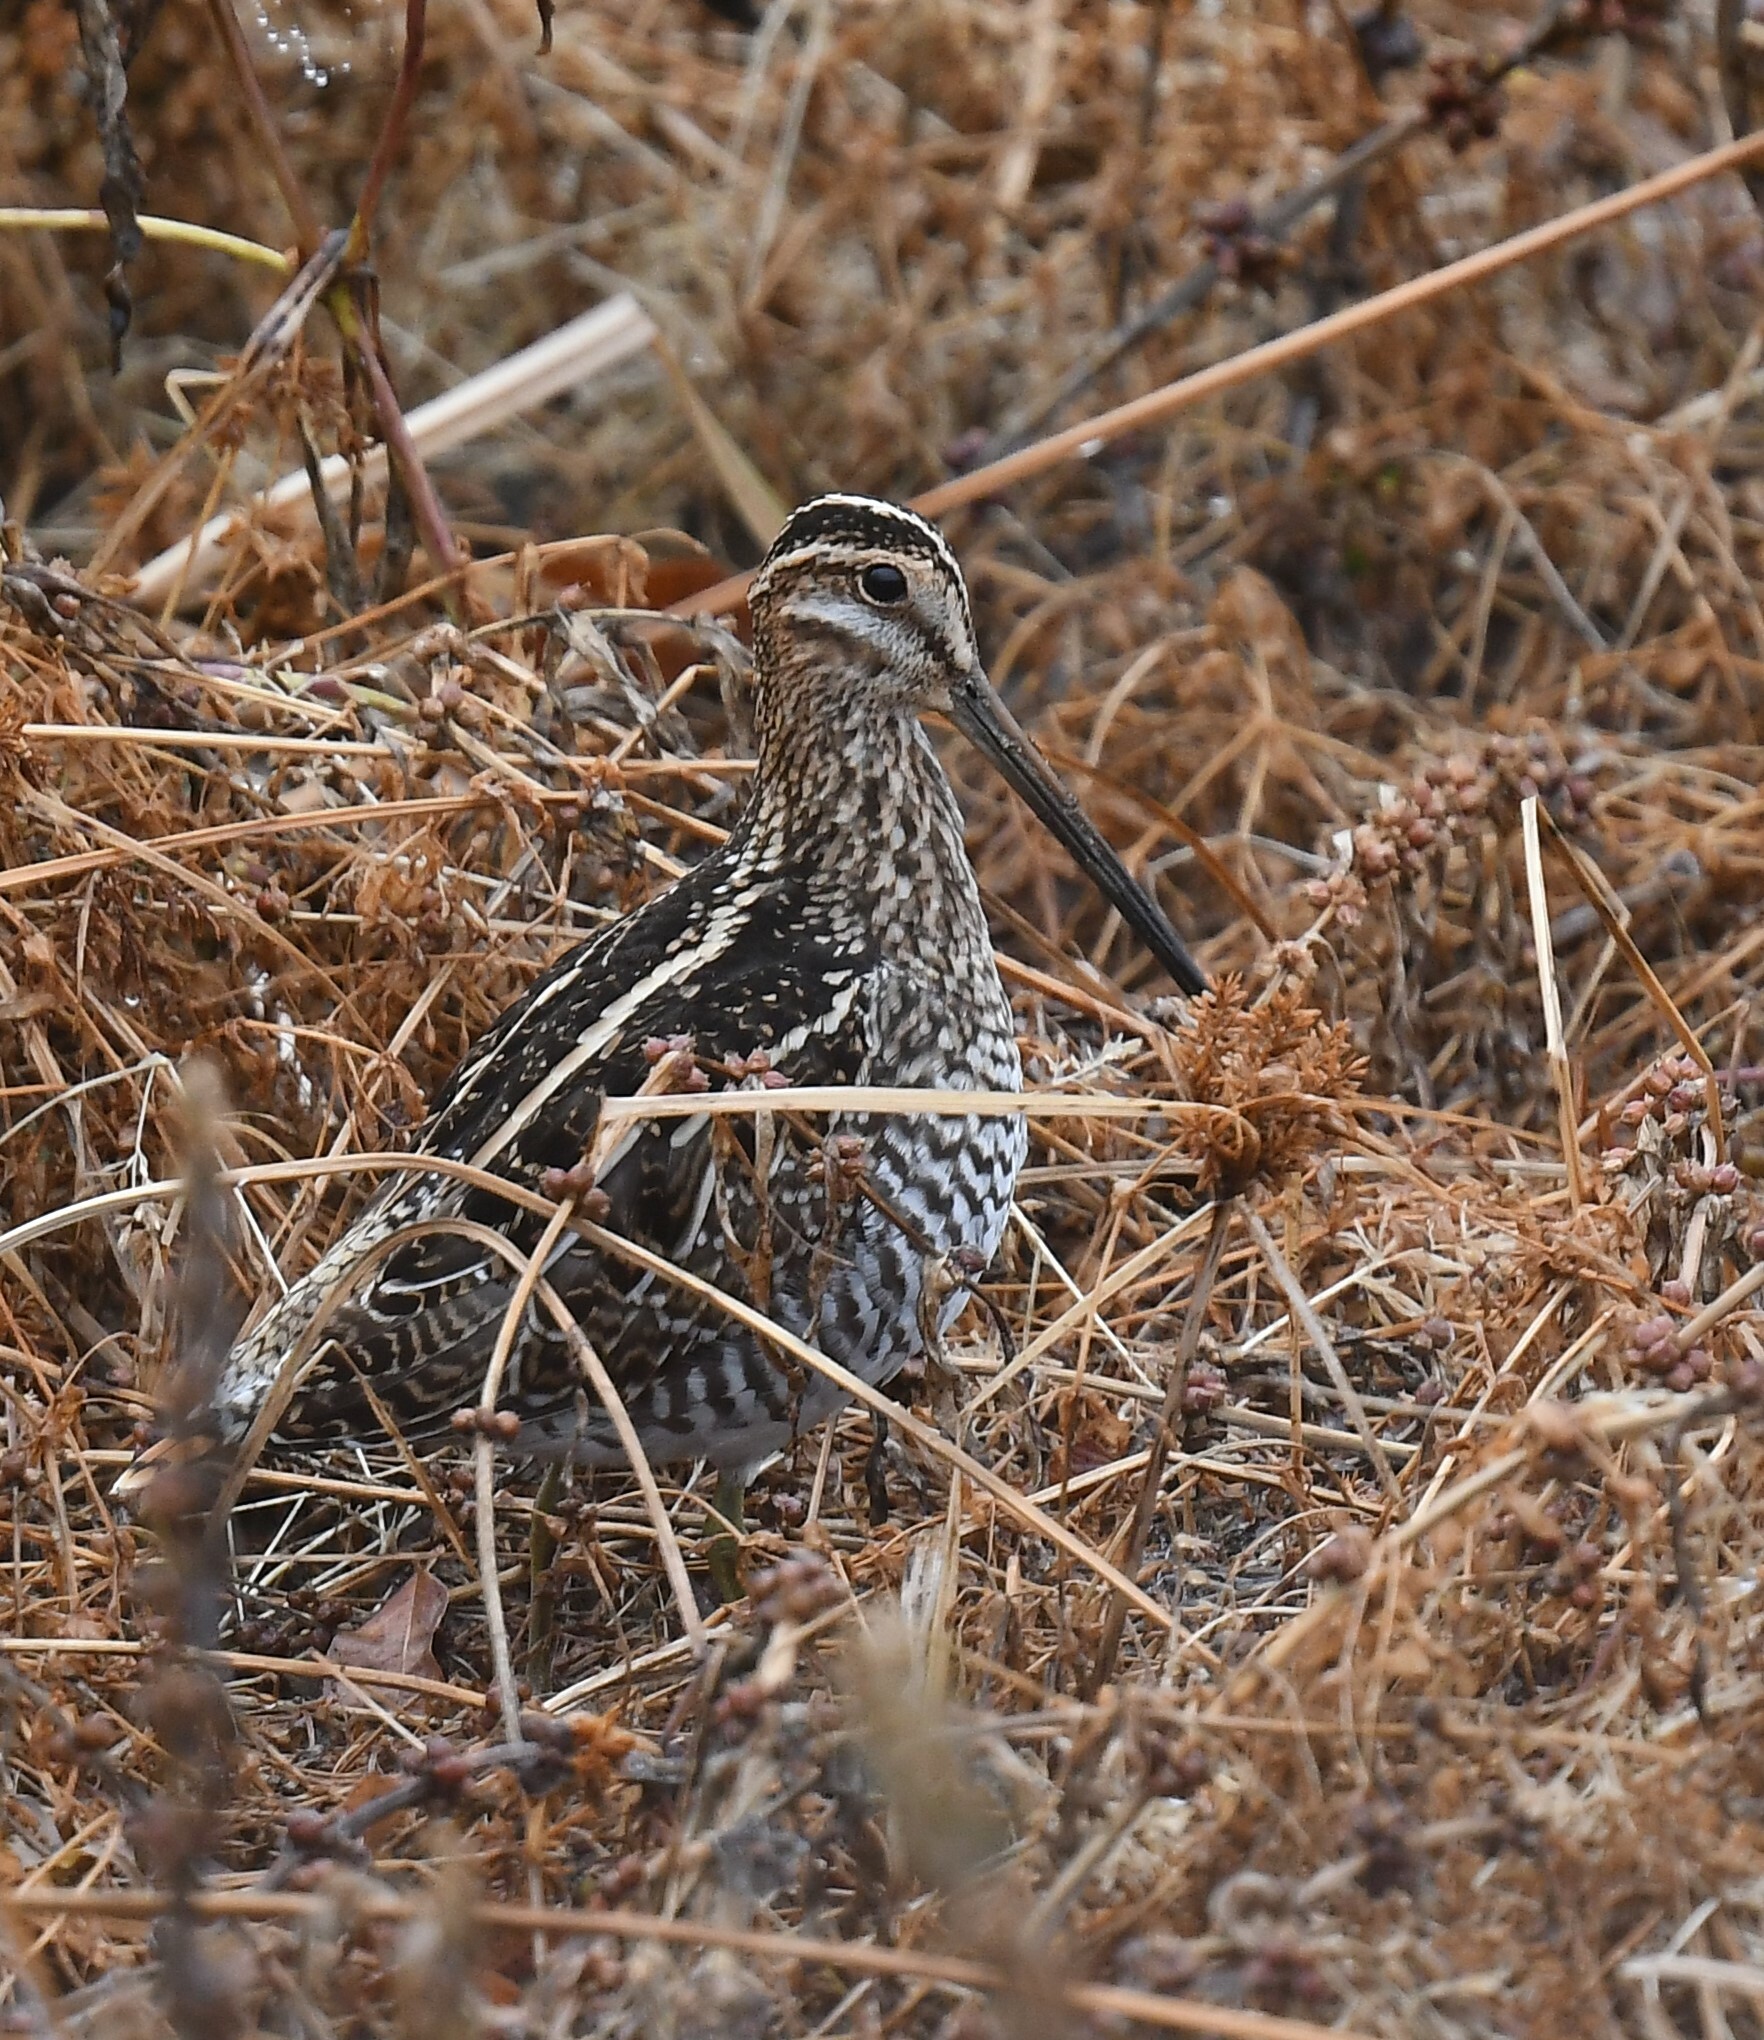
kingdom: Animalia
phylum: Chordata
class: Aves
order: Charadriiformes
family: Scolopacidae
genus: Gallinago
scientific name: Gallinago delicata
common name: Wilson's snipe
